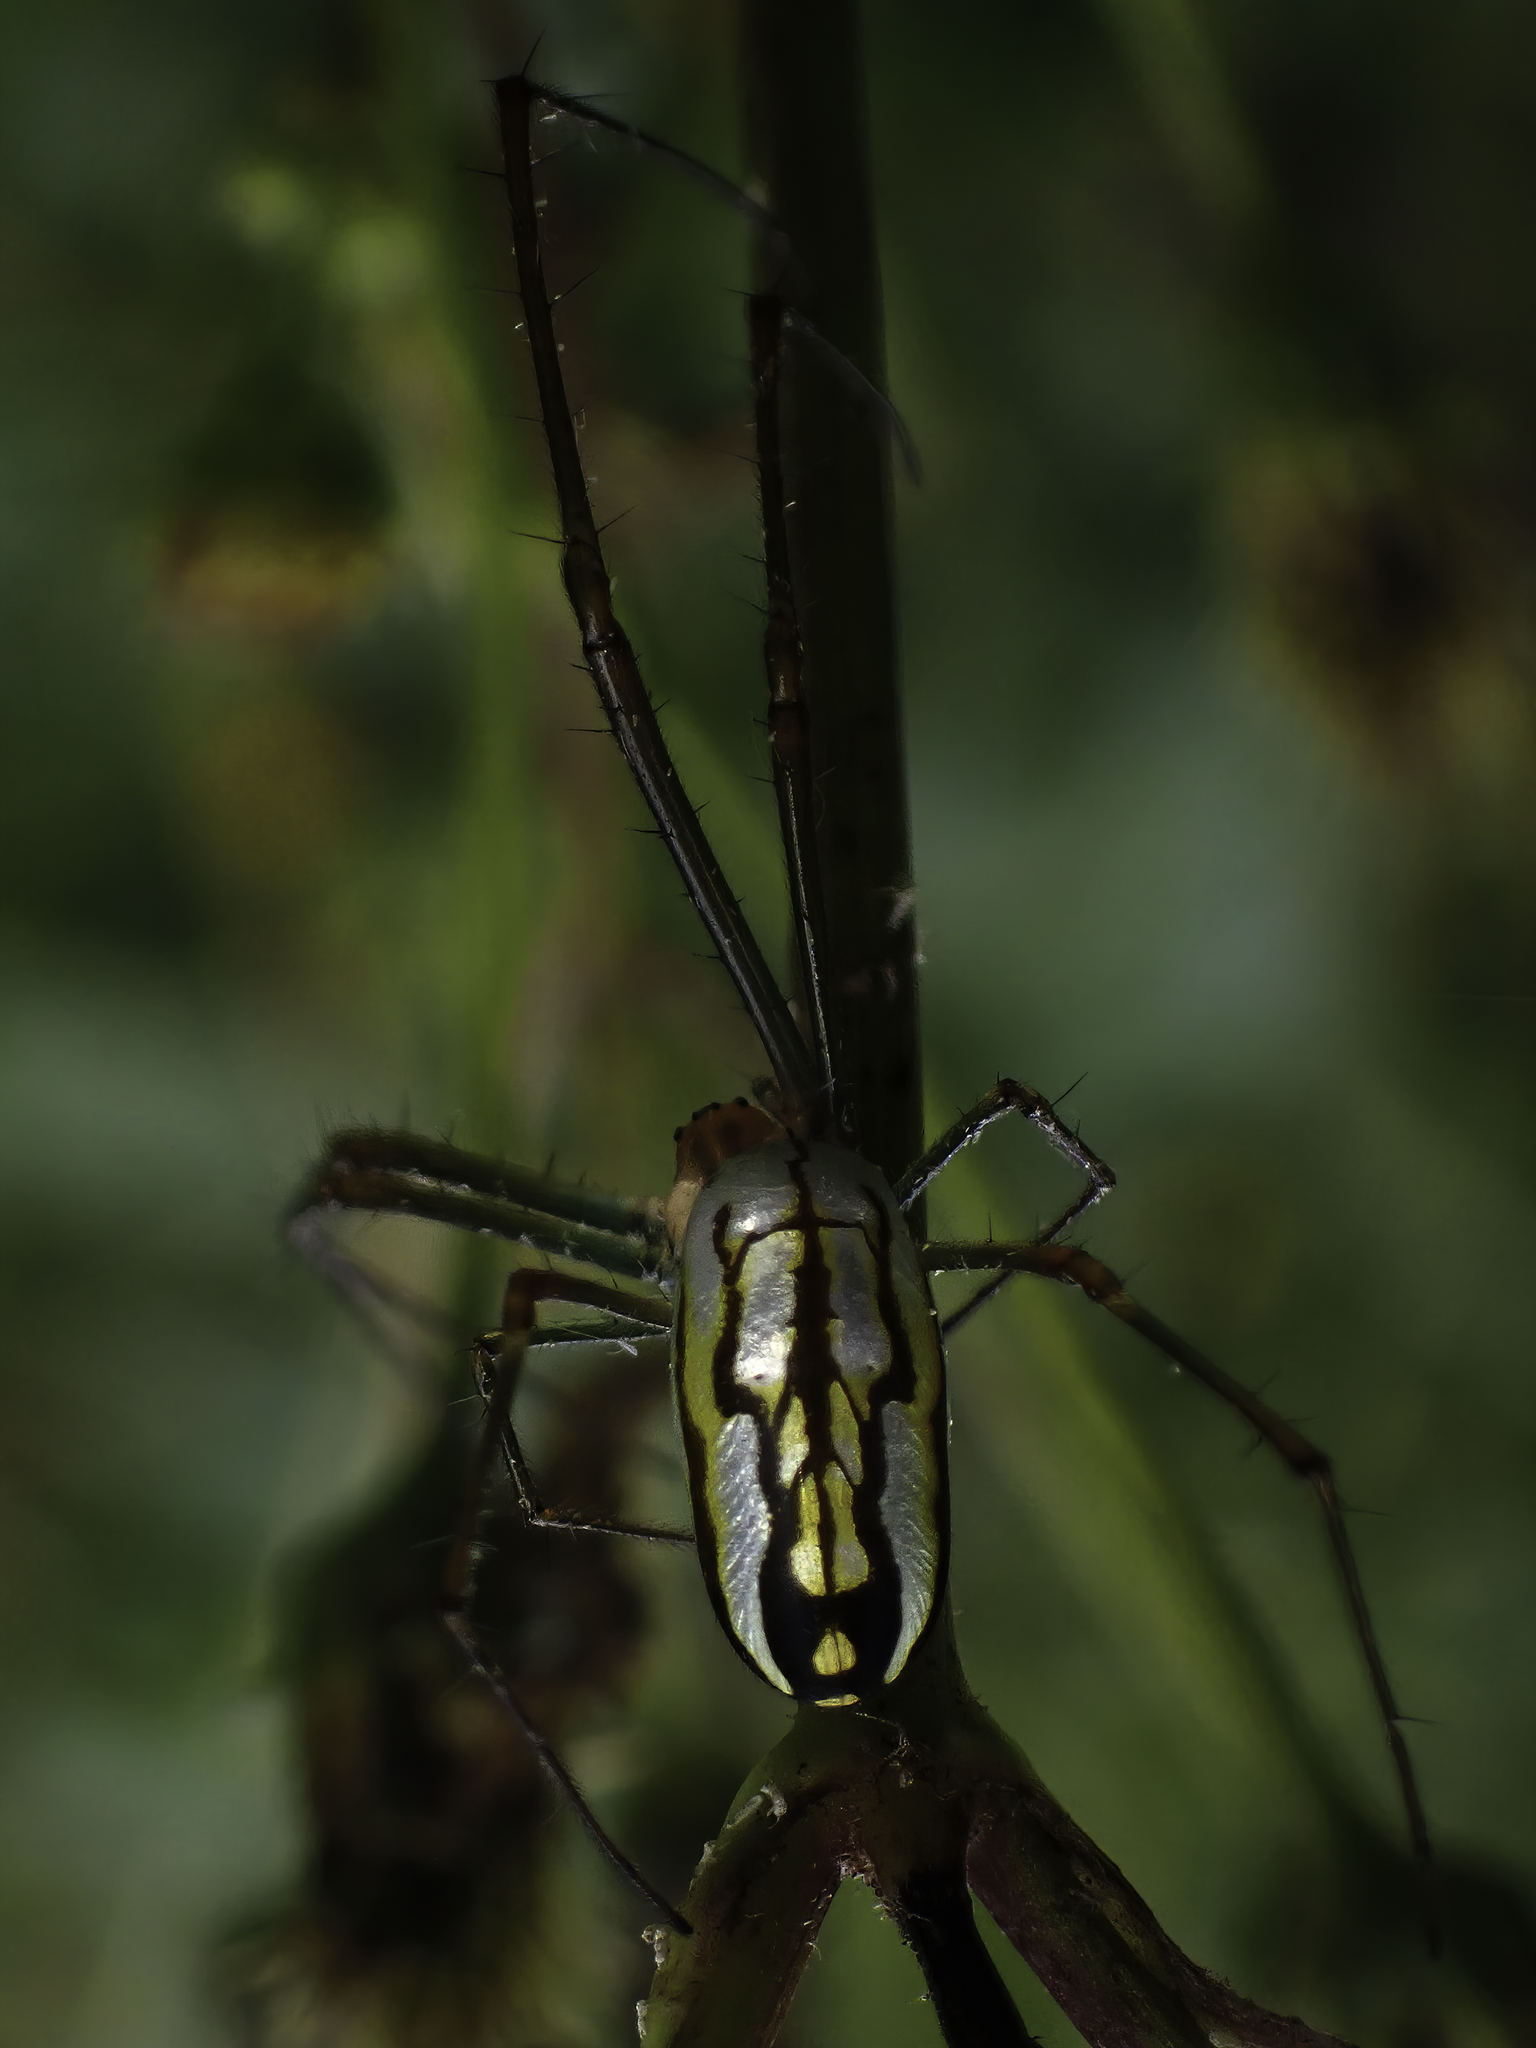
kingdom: Animalia
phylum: Arthropoda
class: Arachnida
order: Araneae
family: Tetragnathidae
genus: Leucauge
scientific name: Leucauge argyra
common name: Longjawed orb weavers
